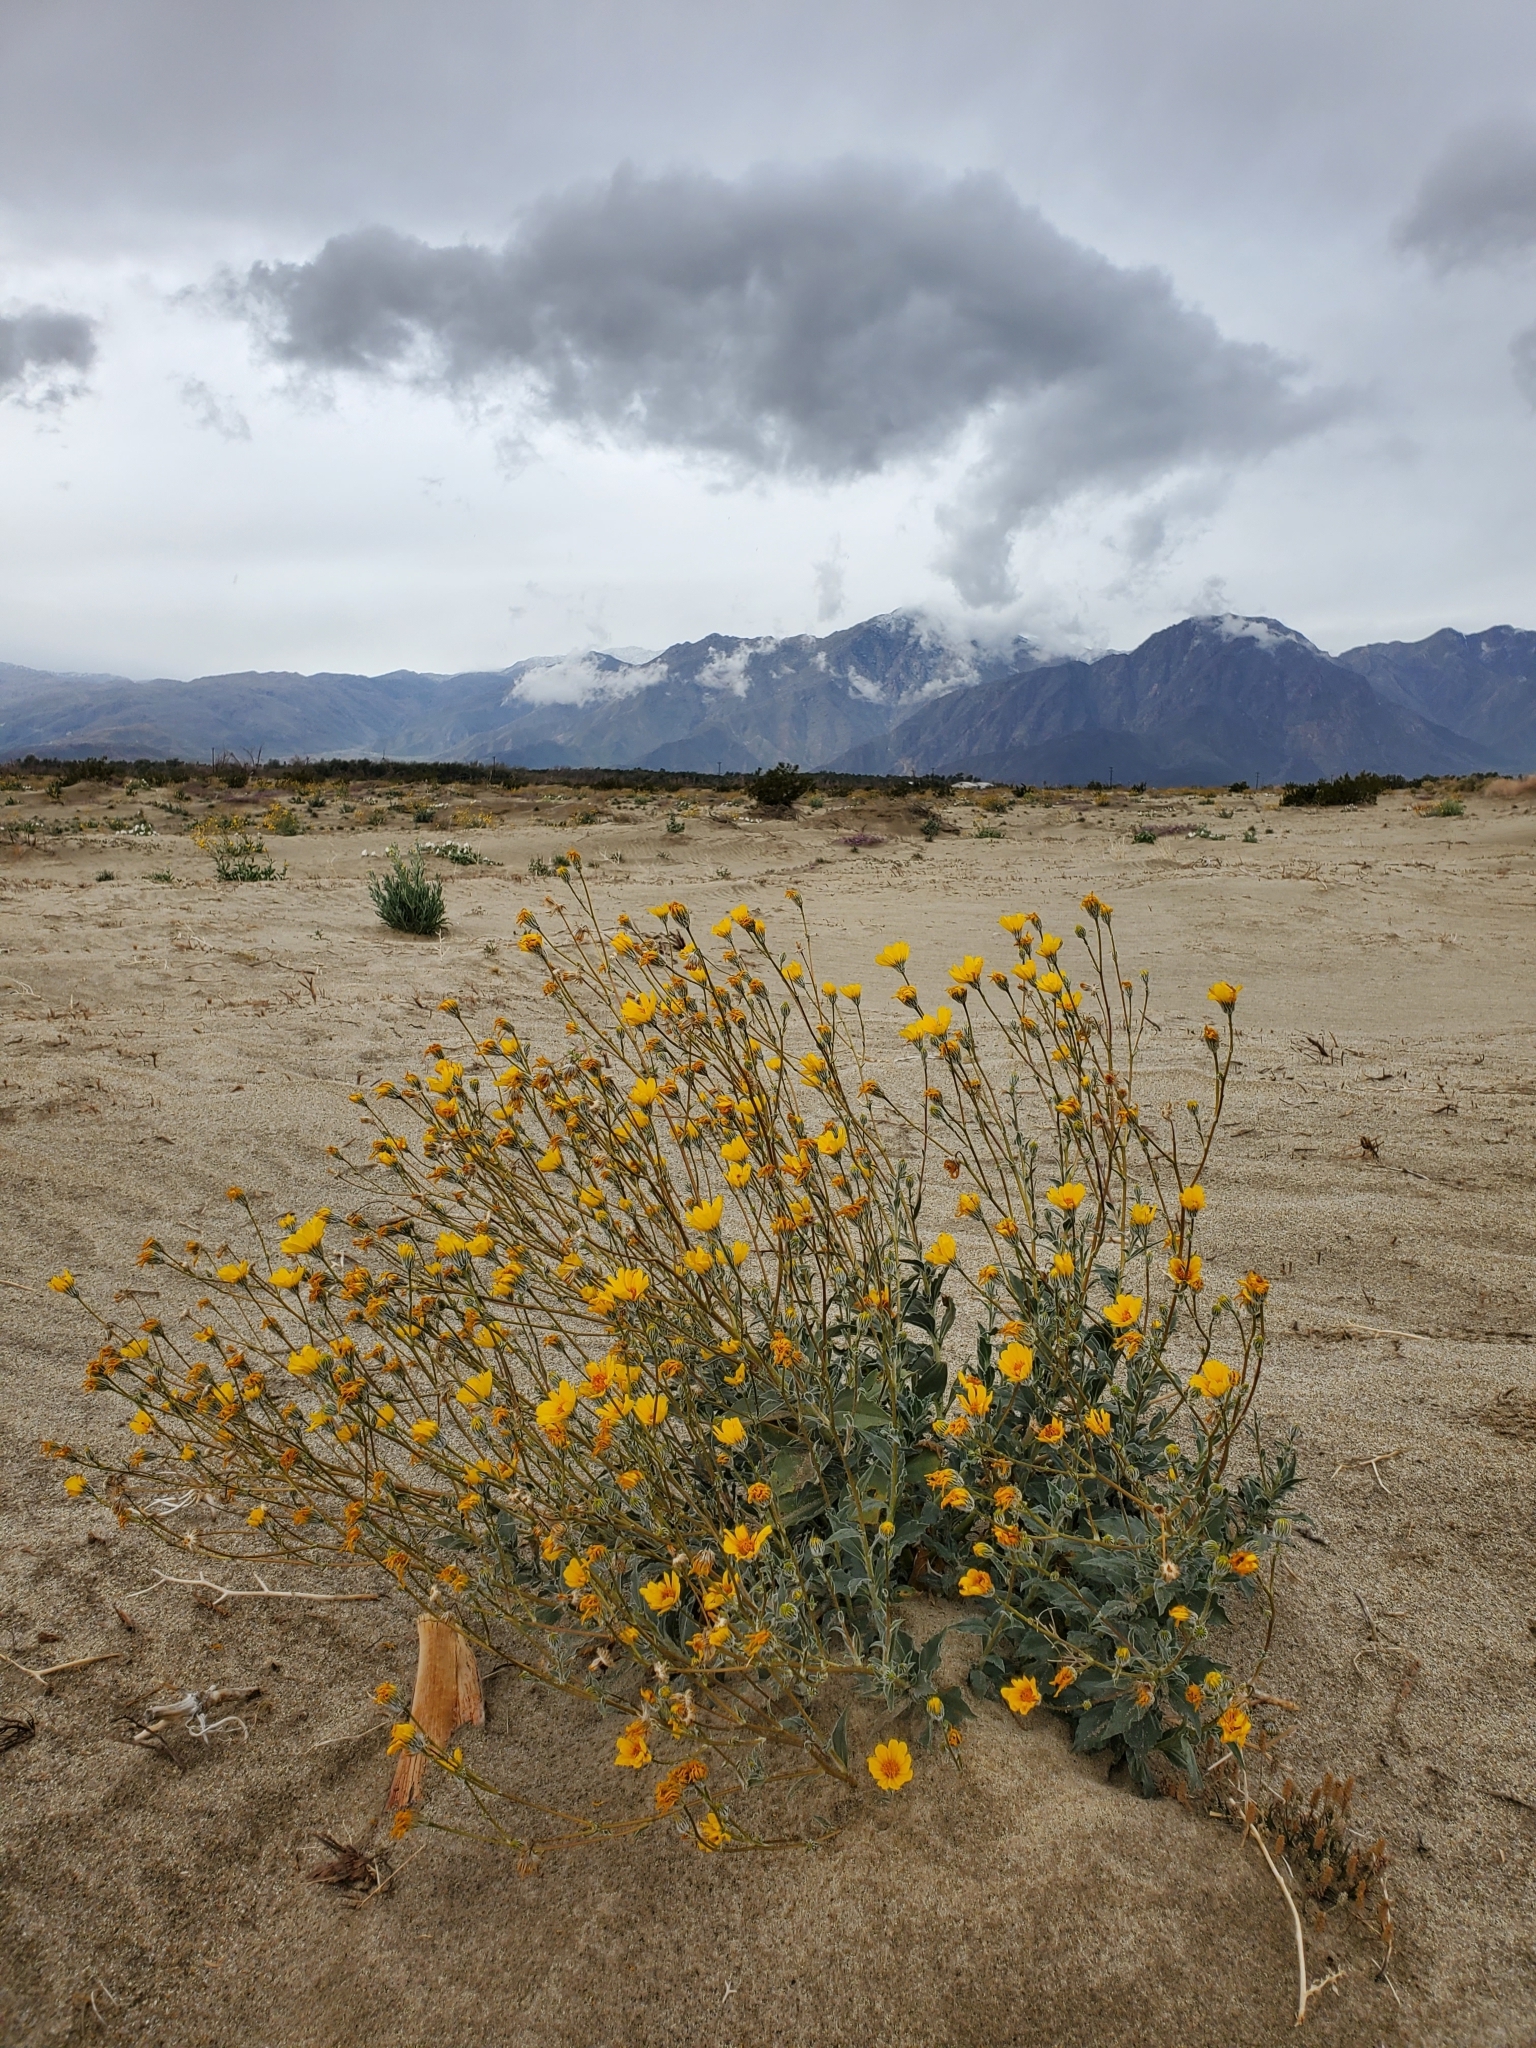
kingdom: Plantae
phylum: Tracheophyta
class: Magnoliopsida
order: Asterales
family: Asteraceae
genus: Geraea
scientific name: Geraea canescens
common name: Desert-gold
